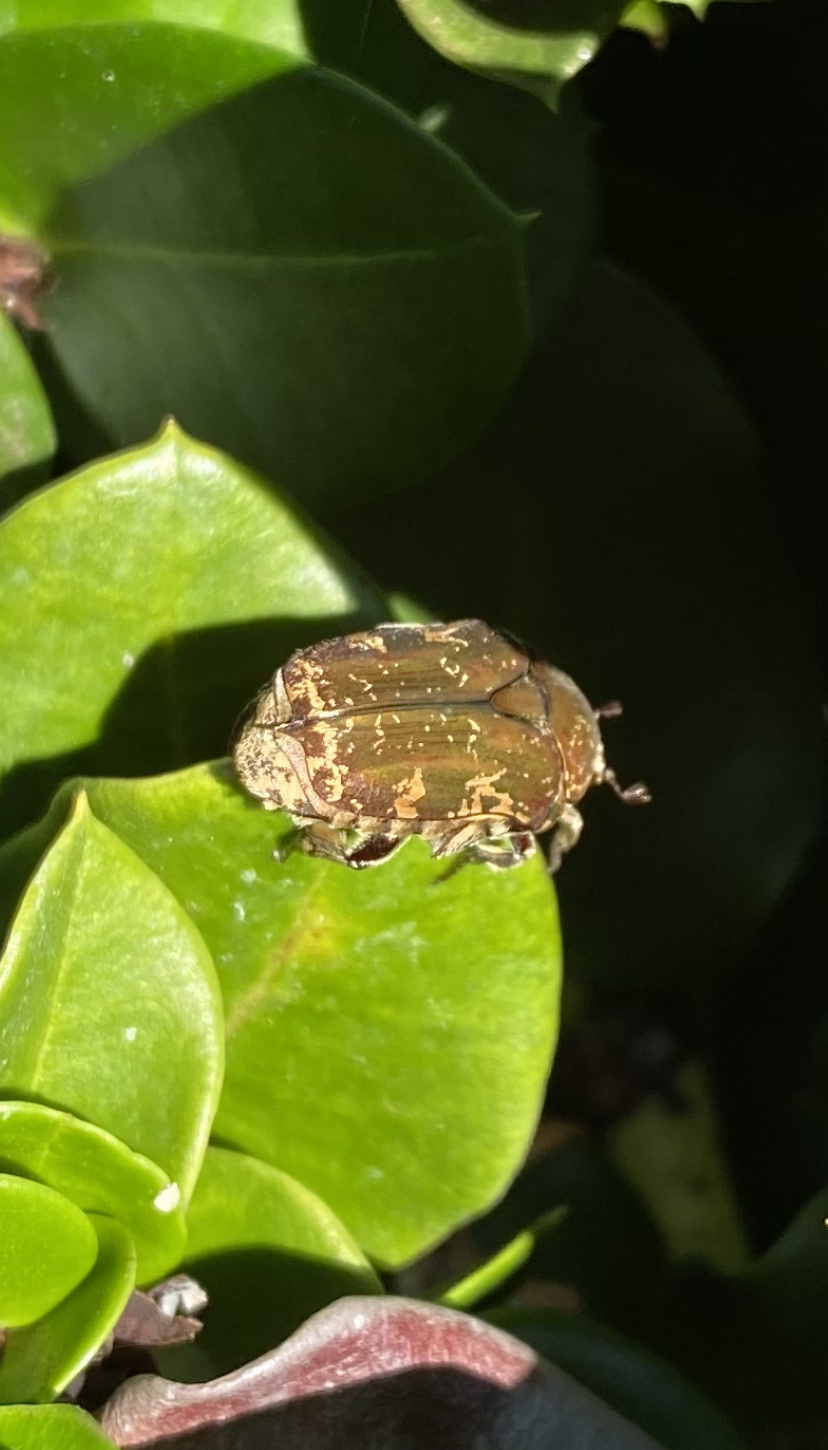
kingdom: Animalia
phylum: Arthropoda
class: Insecta
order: Coleoptera
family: Scarabaeidae
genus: Protaetia
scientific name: Protaetia fusca
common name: Mango flower beetle
